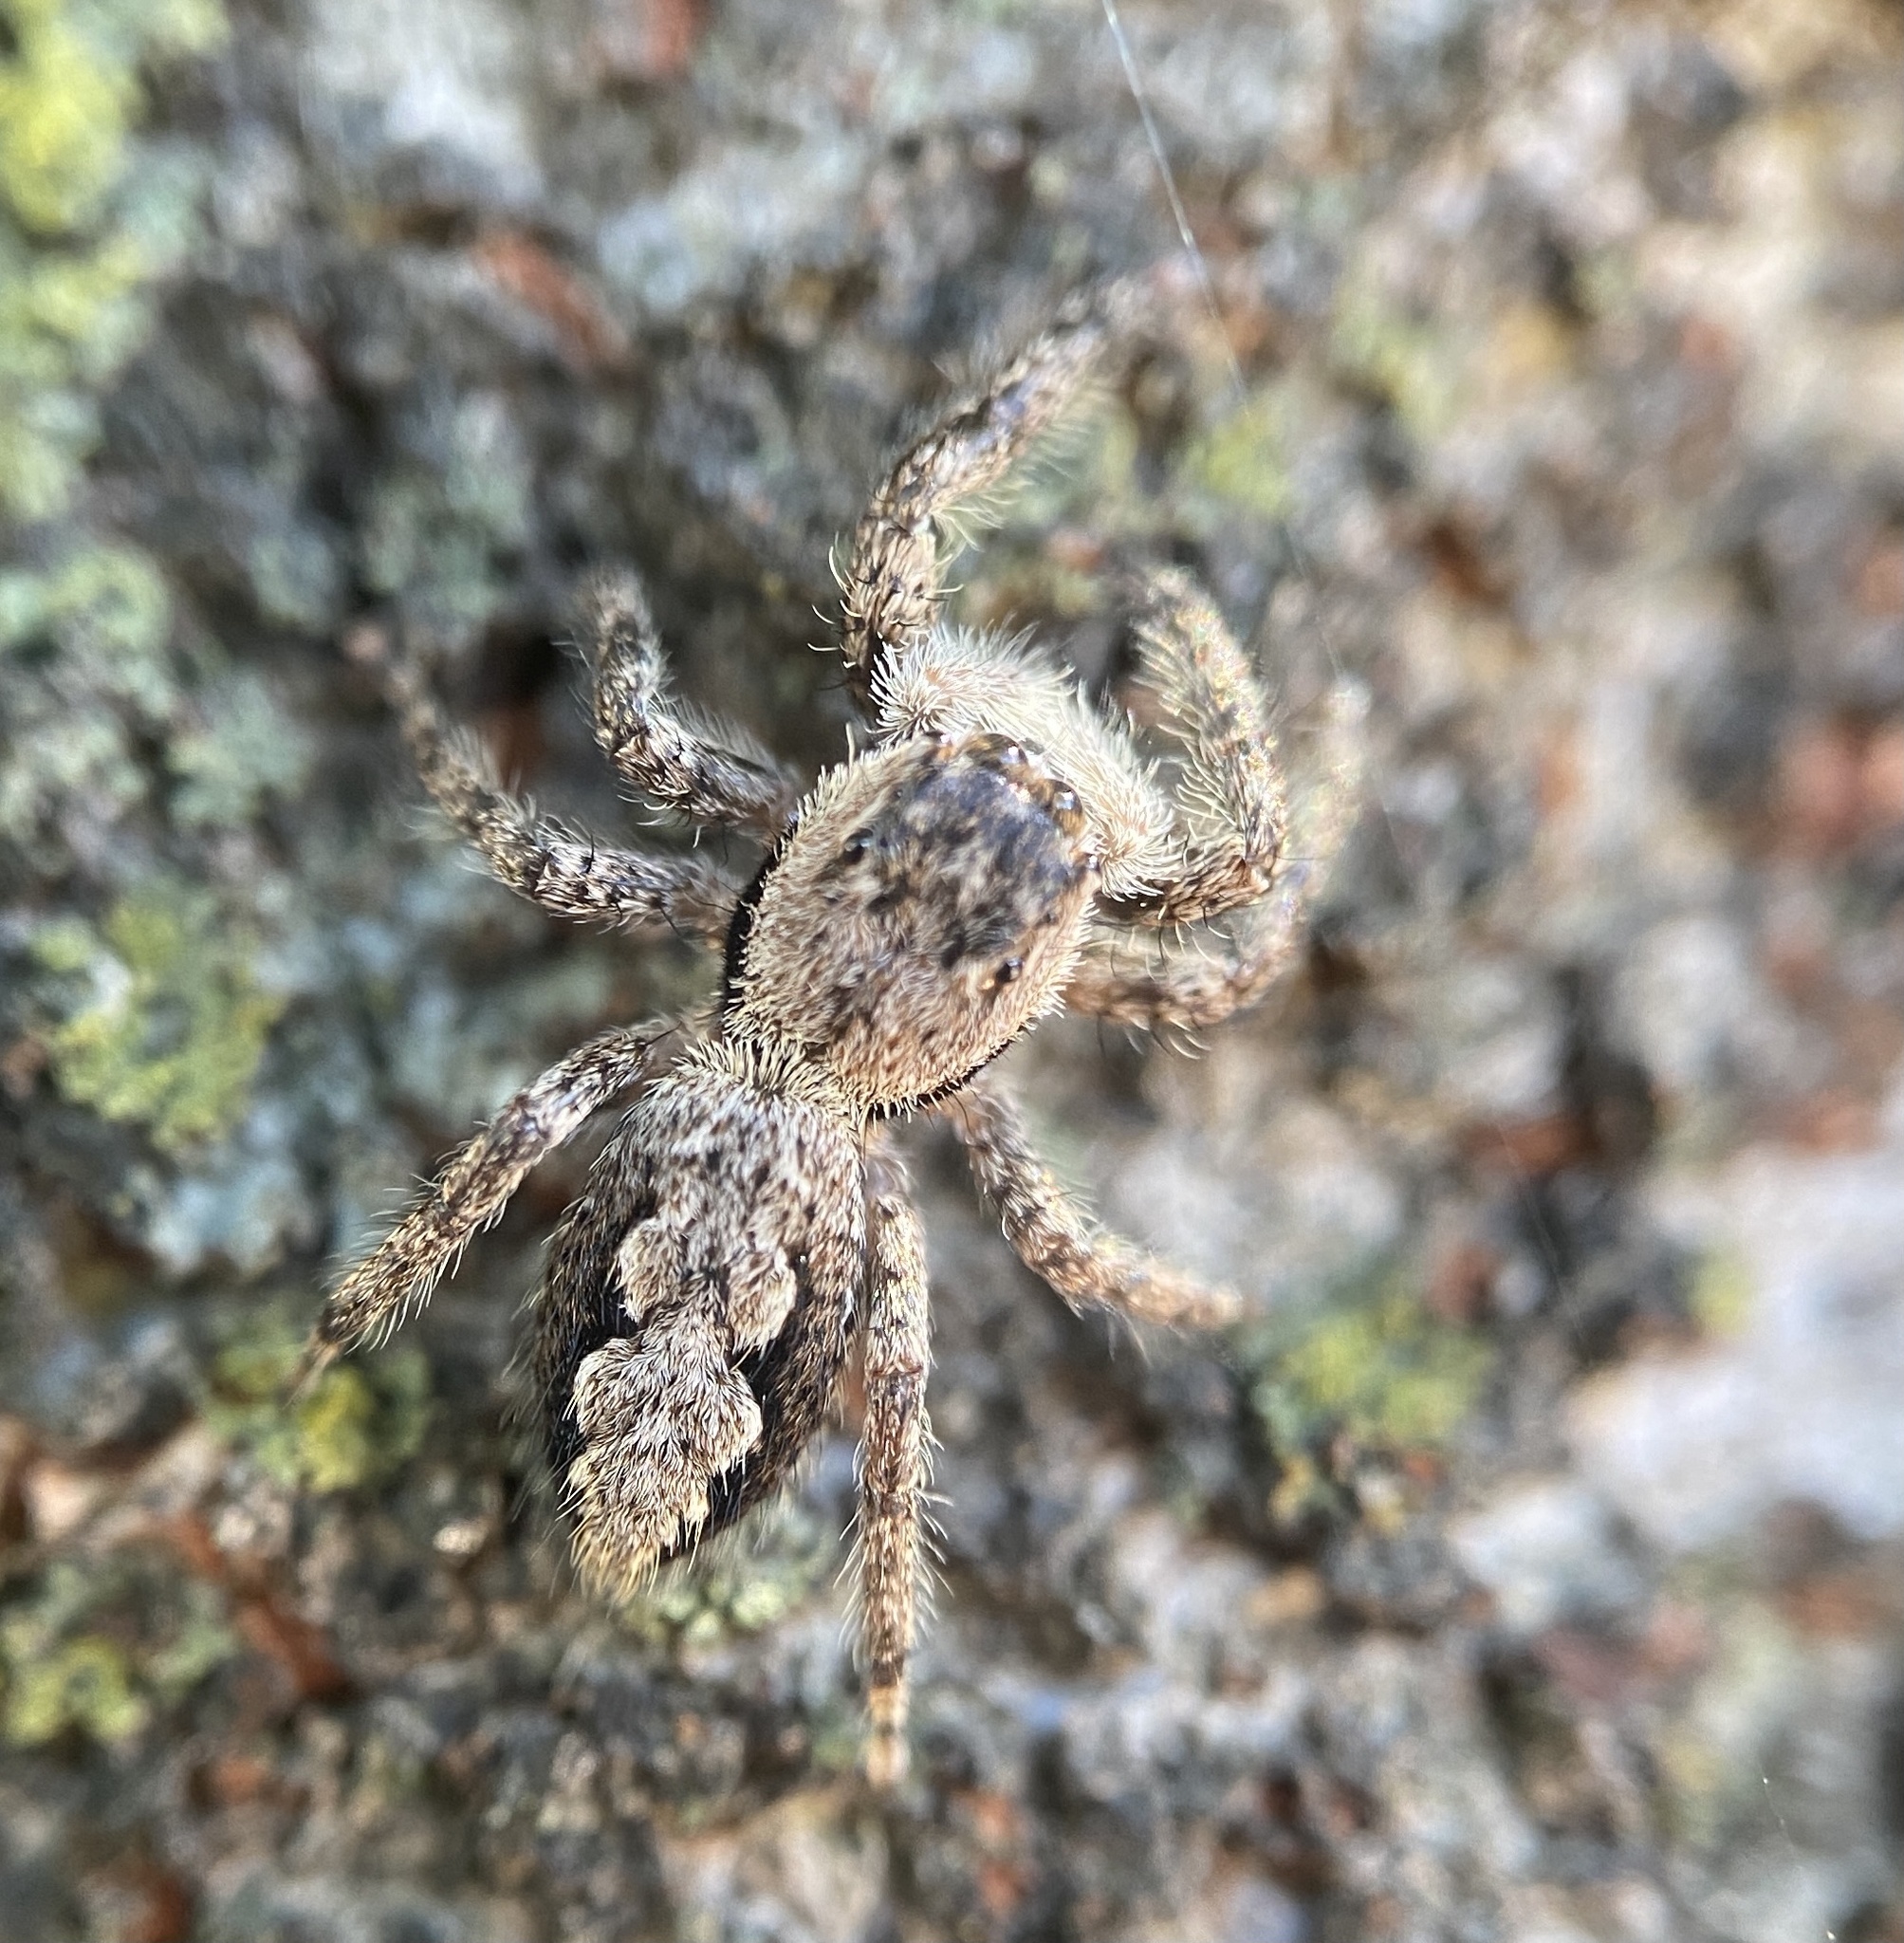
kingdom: Animalia
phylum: Arthropoda
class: Arachnida
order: Araneae
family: Salticidae
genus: Platycryptus
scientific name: Platycryptus undatus
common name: Tan jumping spider
